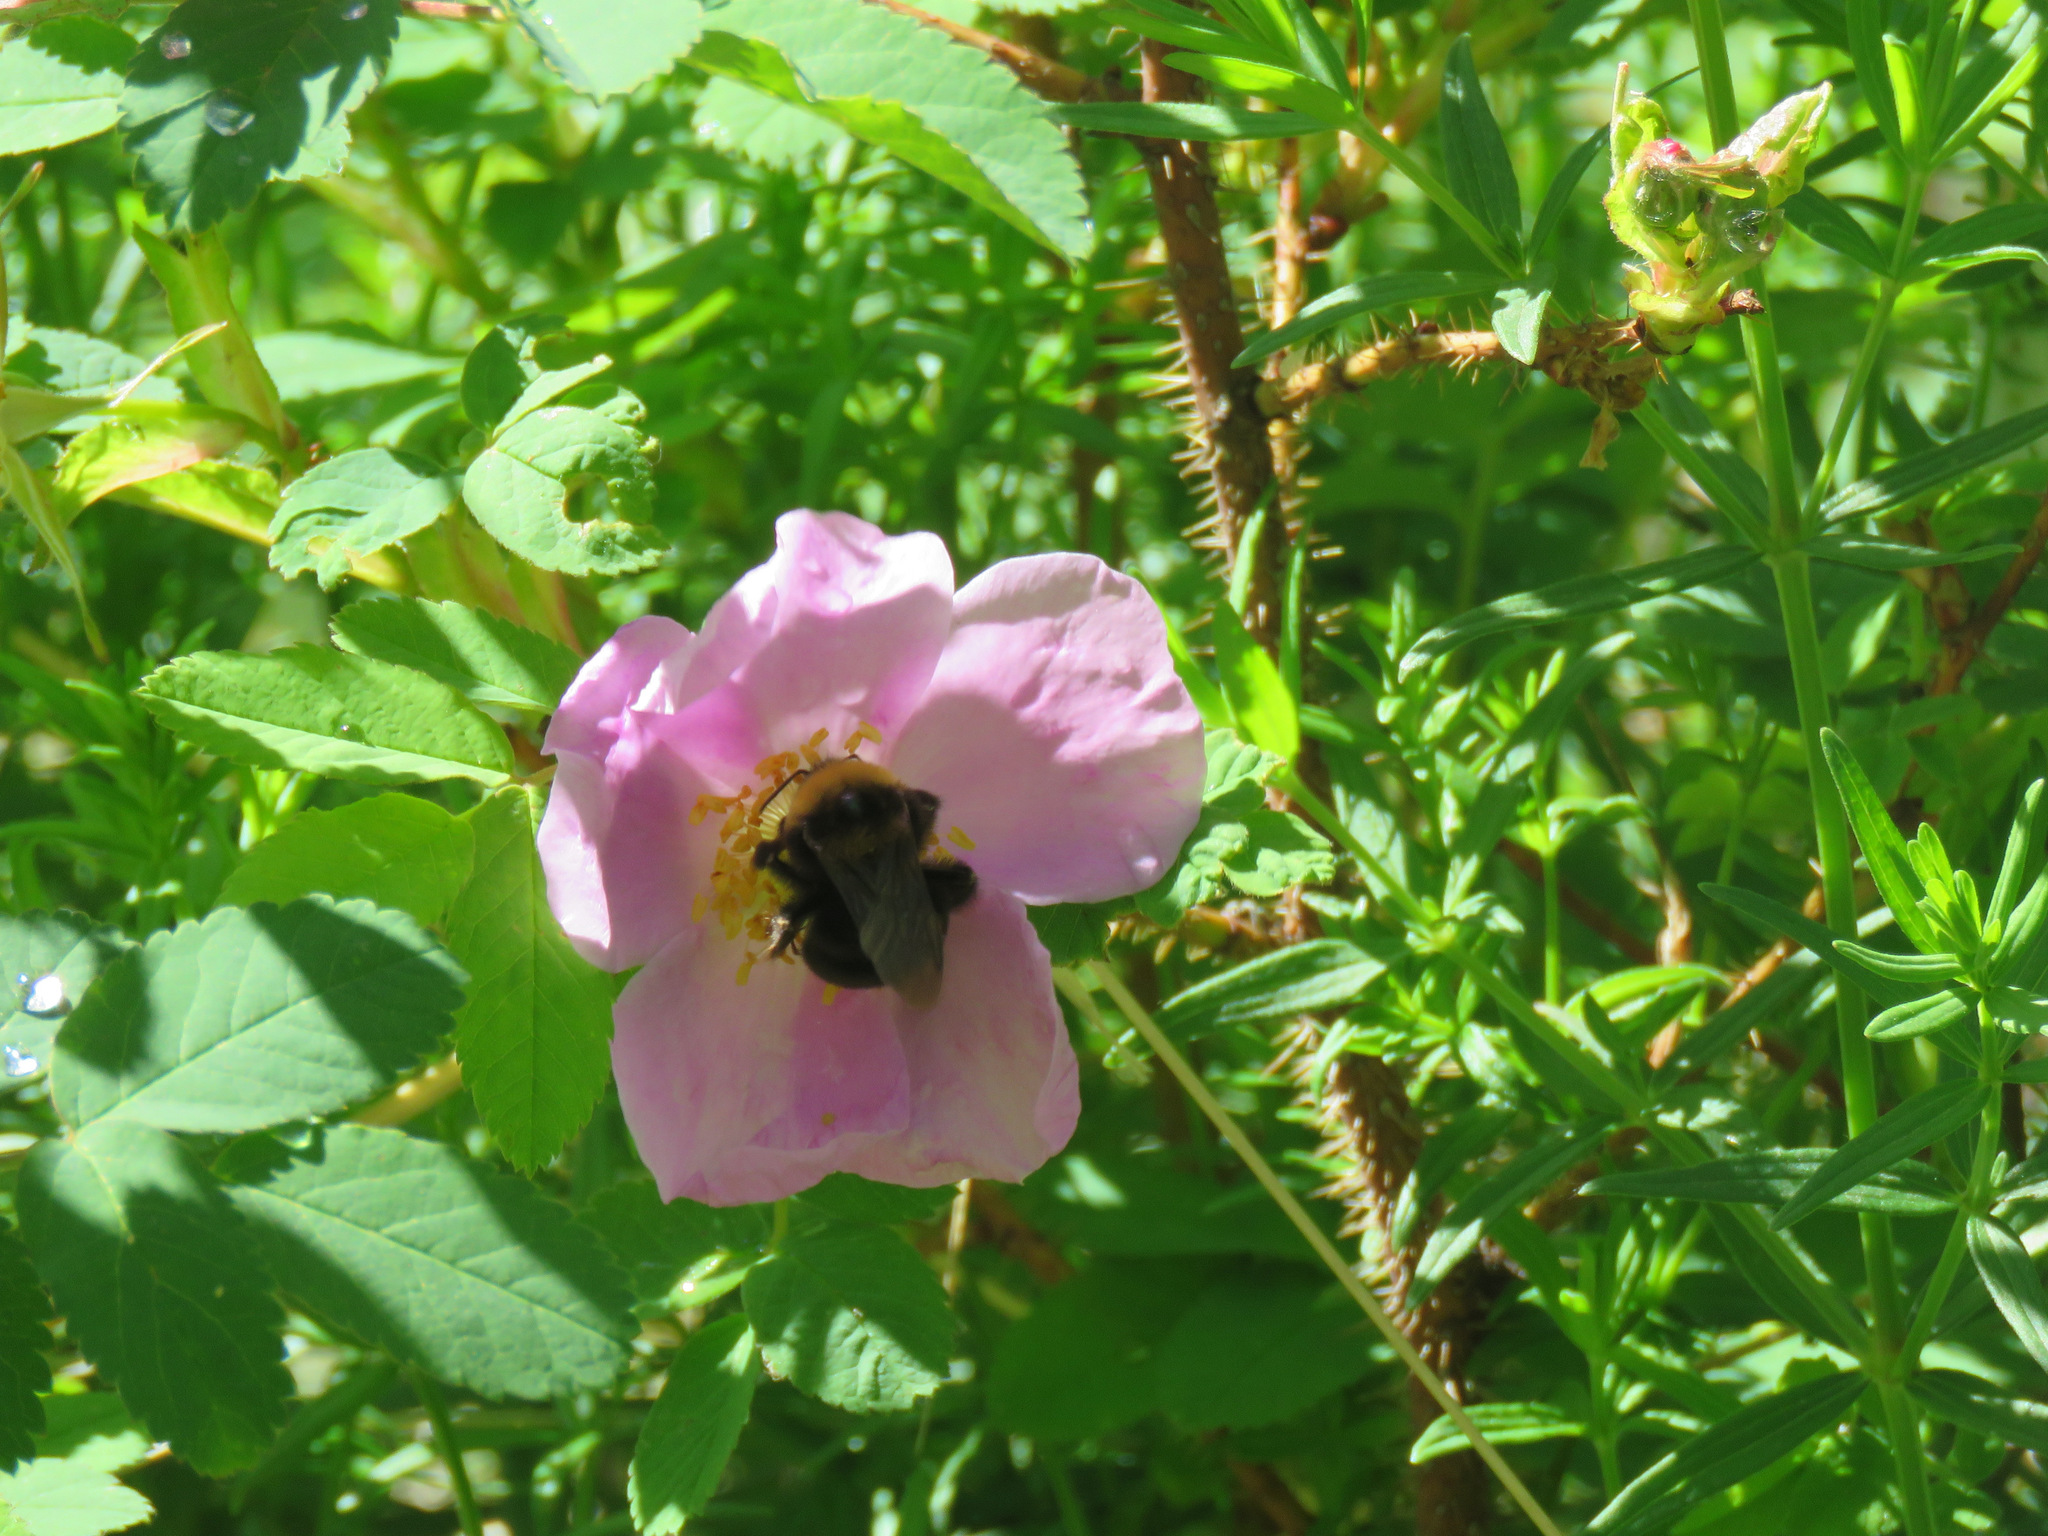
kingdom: Animalia
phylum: Arthropoda
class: Insecta
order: Hymenoptera
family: Apidae
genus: Bombus
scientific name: Bombus occidentalis
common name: Western bumble bee
